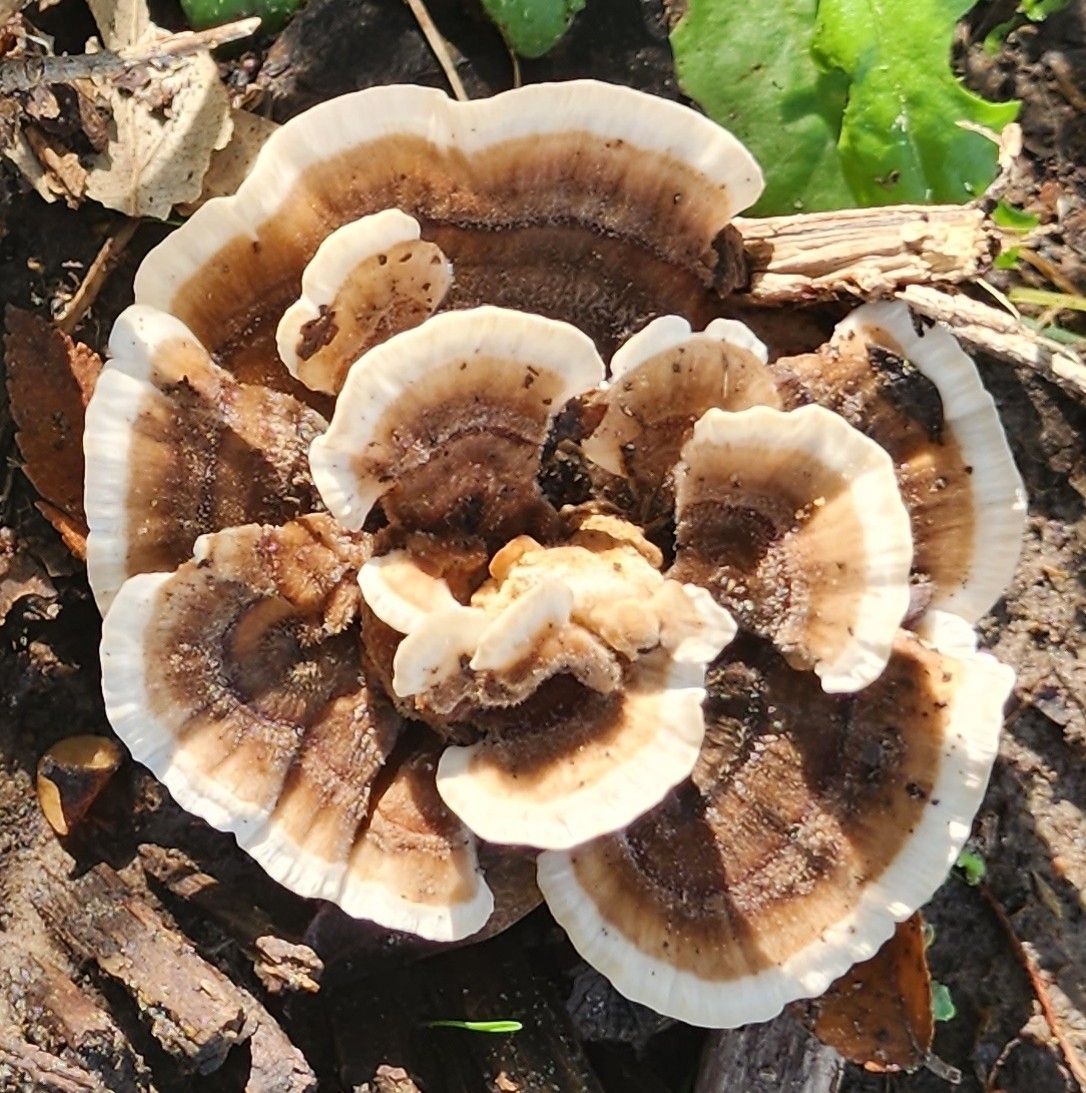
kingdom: Fungi
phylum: Basidiomycota
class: Agaricomycetes
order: Polyporales
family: Polyporaceae
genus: Trametes
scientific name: Trametes versicolor
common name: Turkeytail
